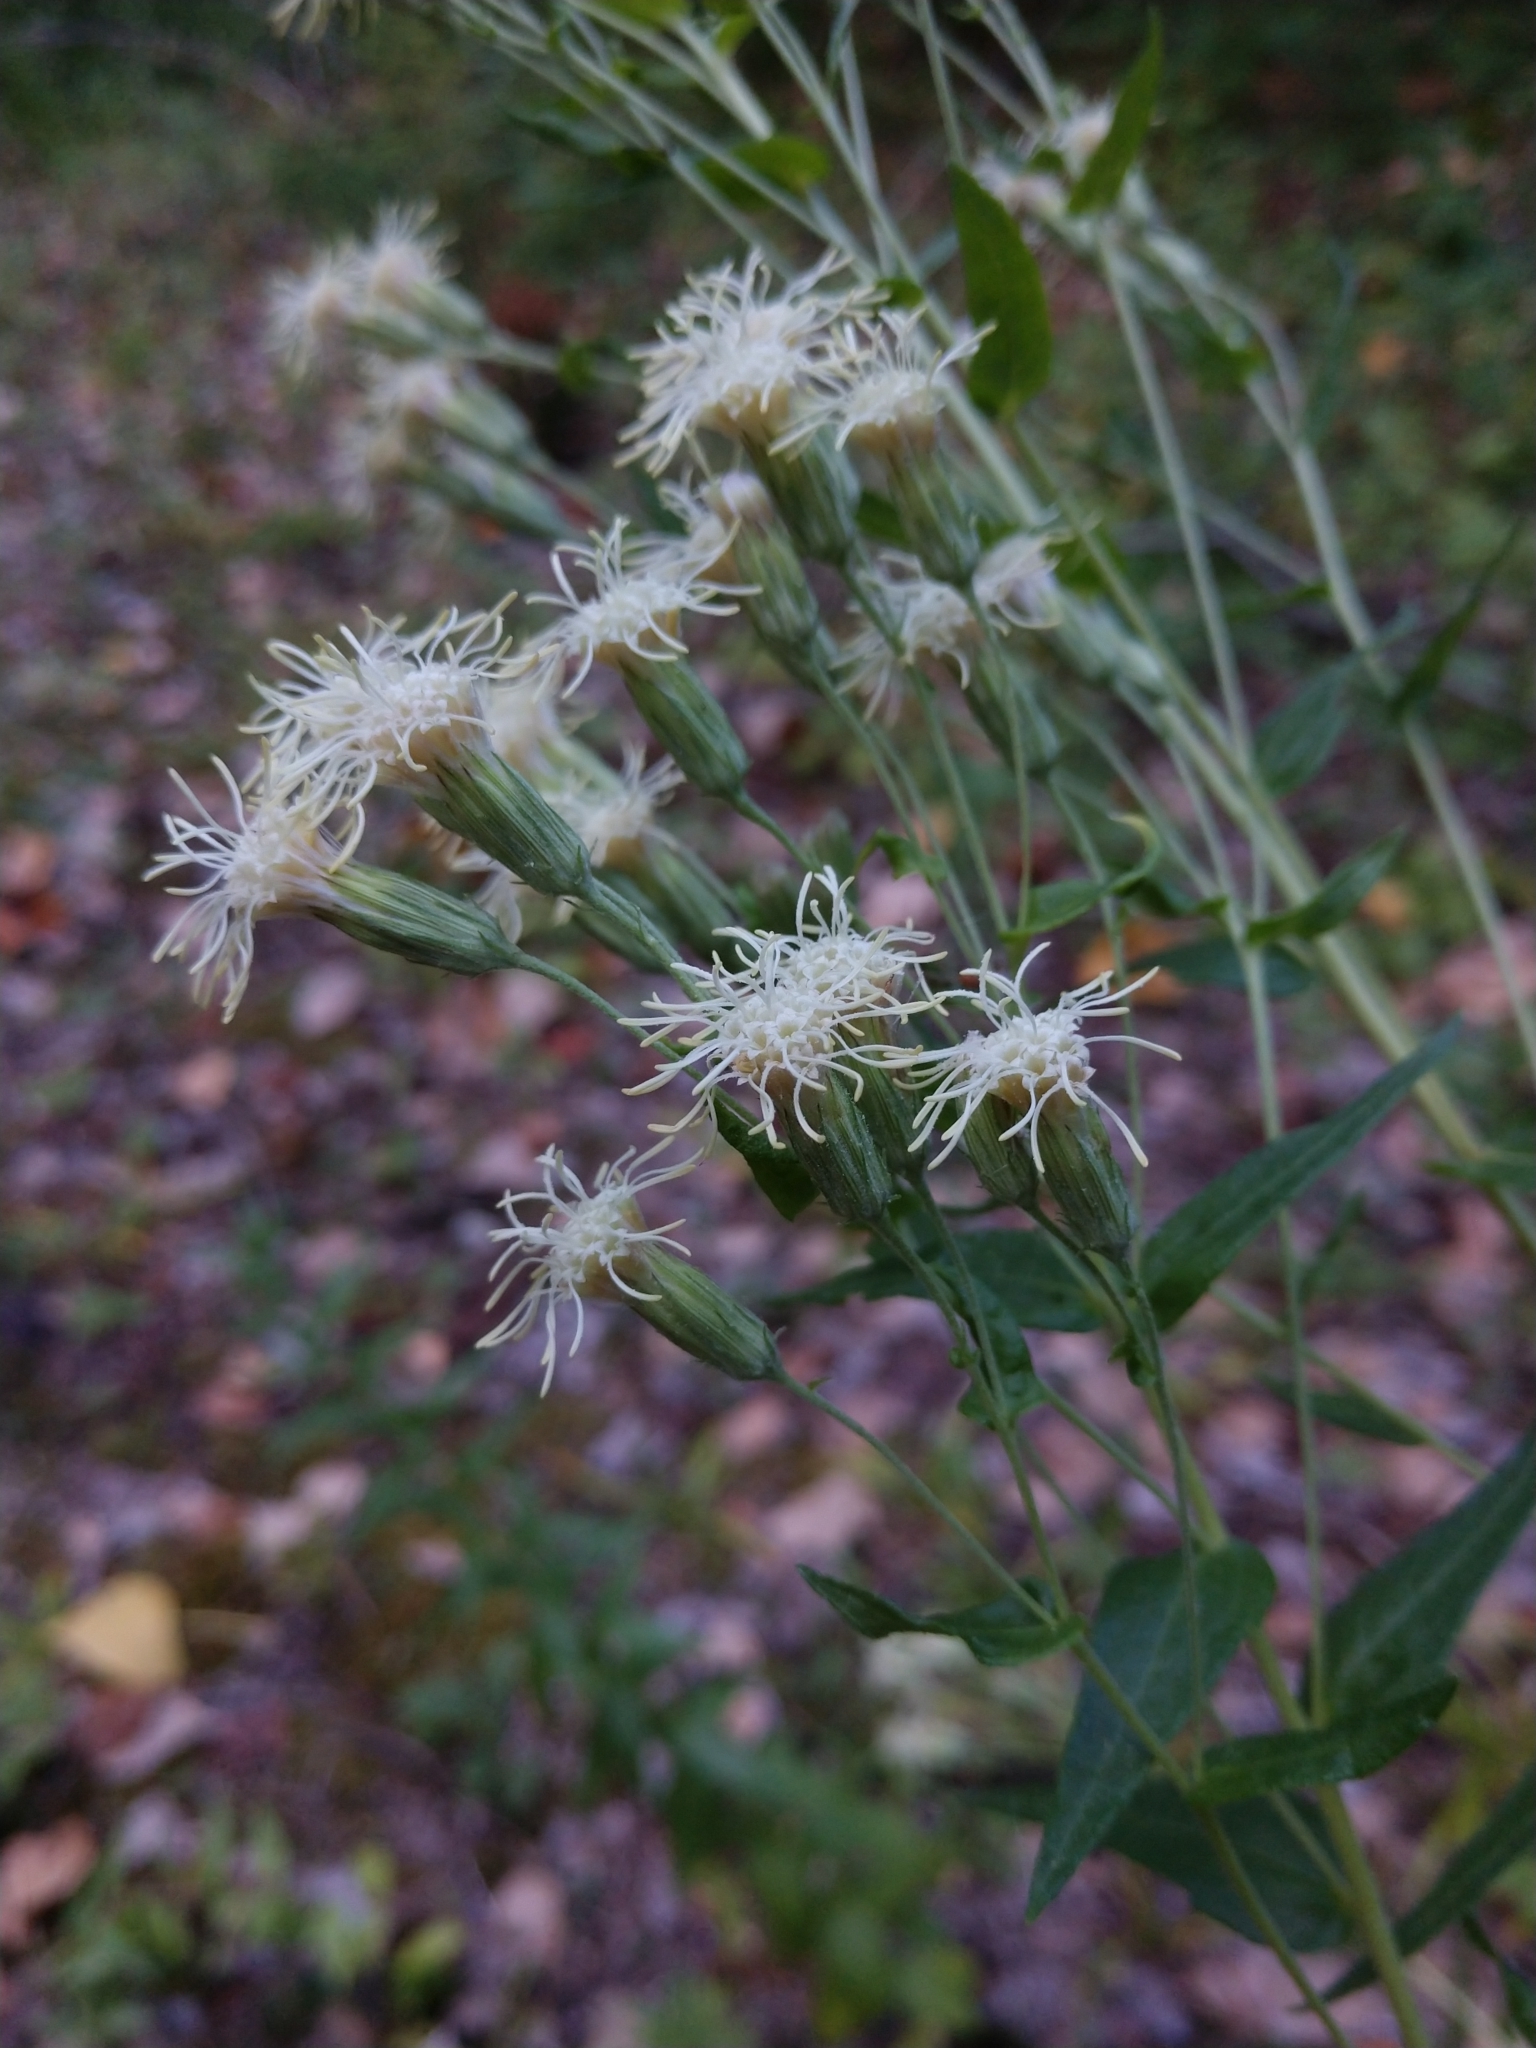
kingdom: Plantae
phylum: Tracheophyta
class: Magnoliopsida
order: Asterales
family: Asteraceae
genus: Brickellia
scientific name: Brickellia eupatorioides
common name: False boneset
